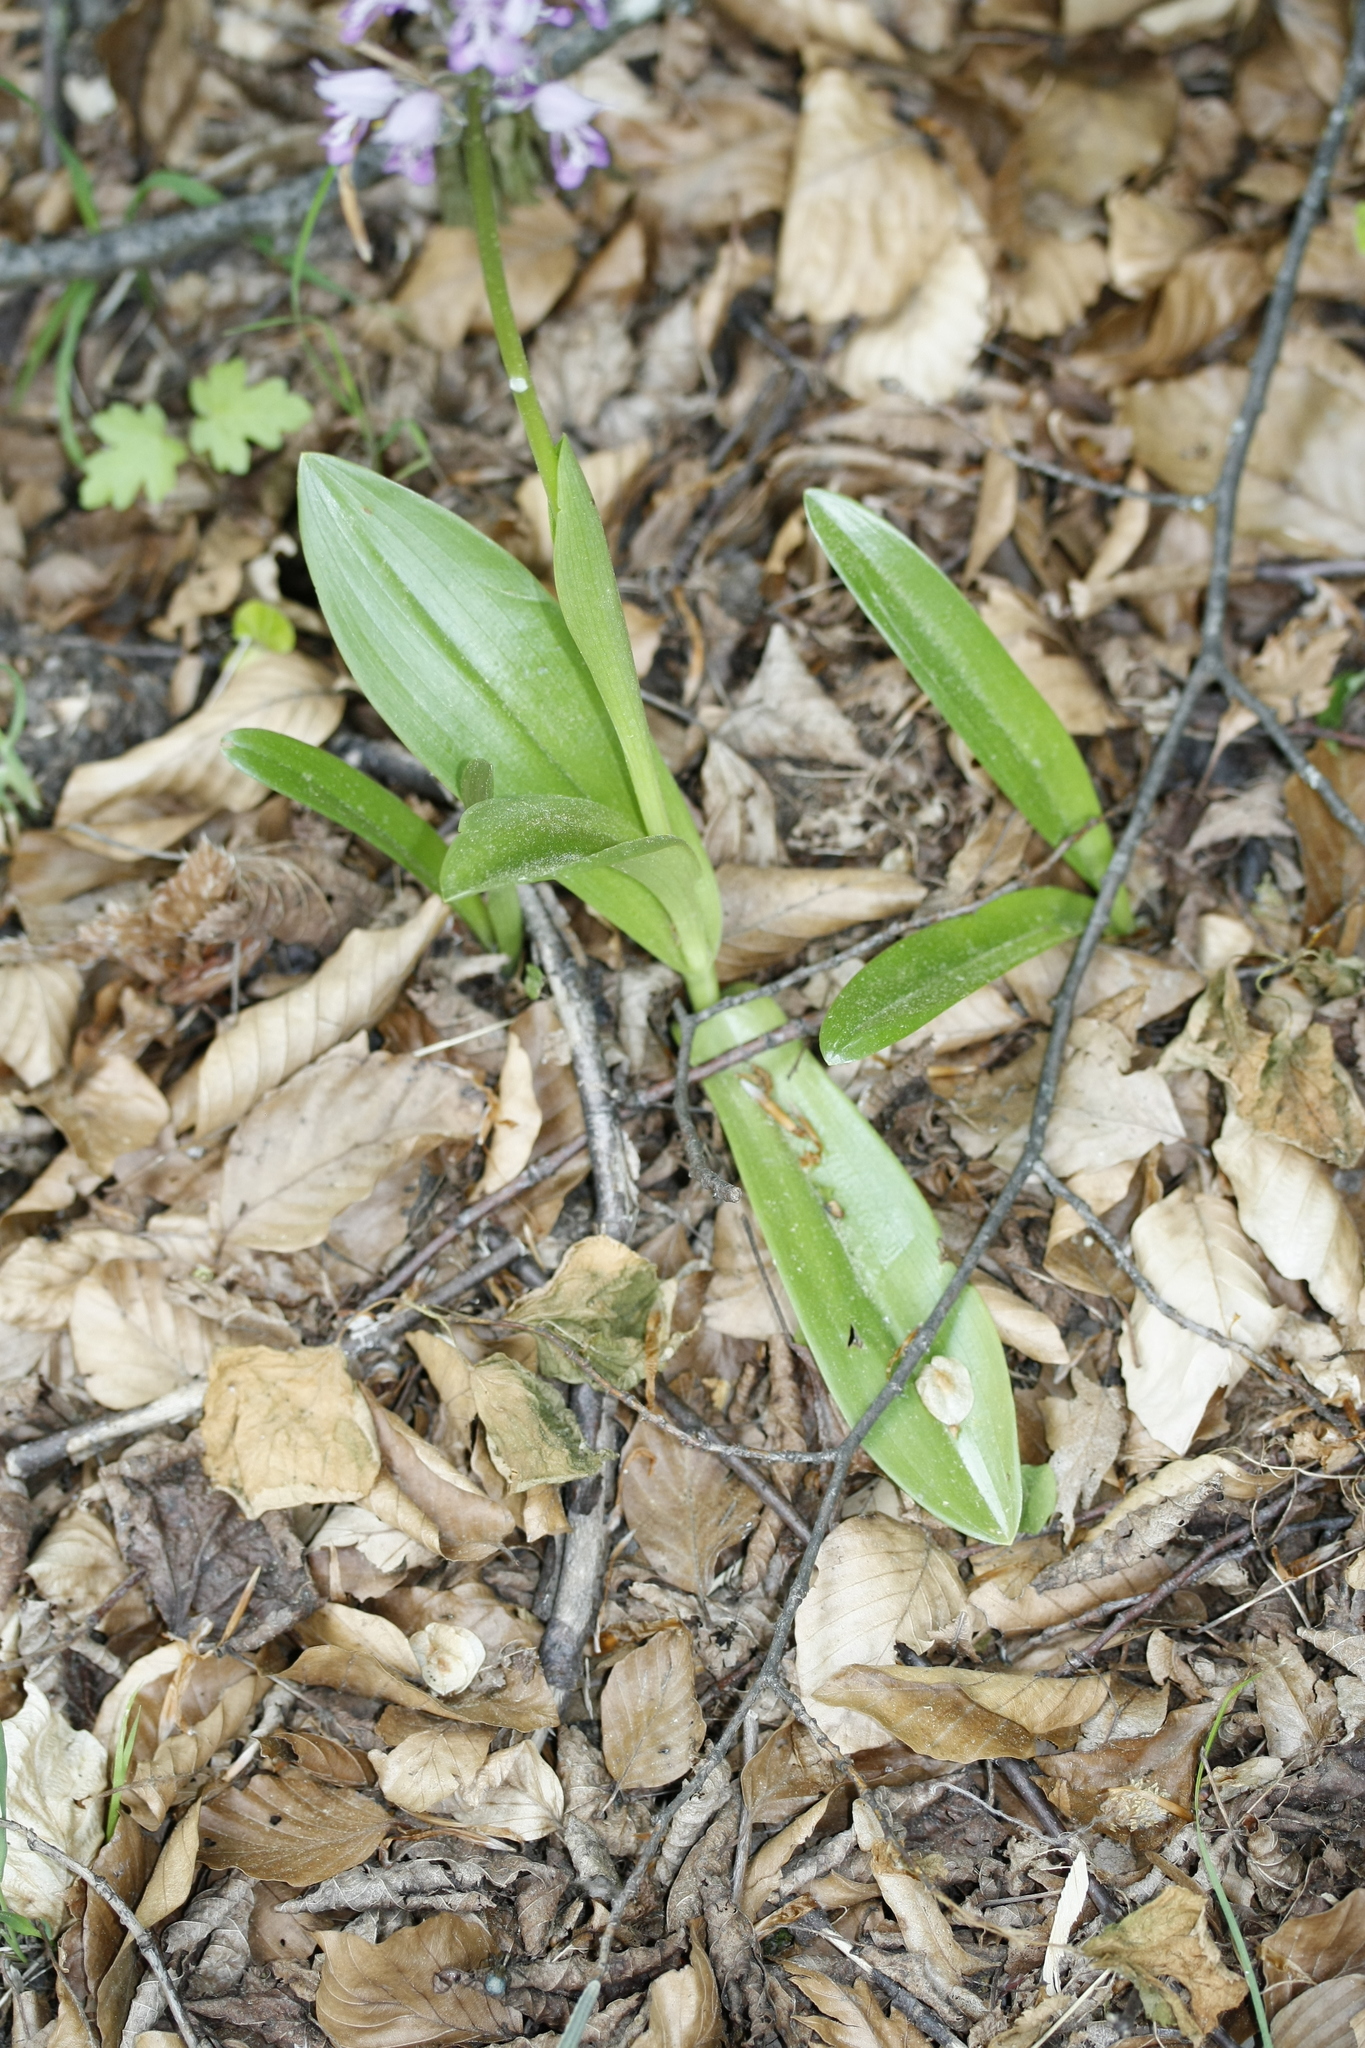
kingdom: Plantae
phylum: Tracheophyta
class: Liliopsida
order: Asparagales
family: Orchidaceae
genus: Orchis
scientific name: Orchis militaris
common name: Military orchid
